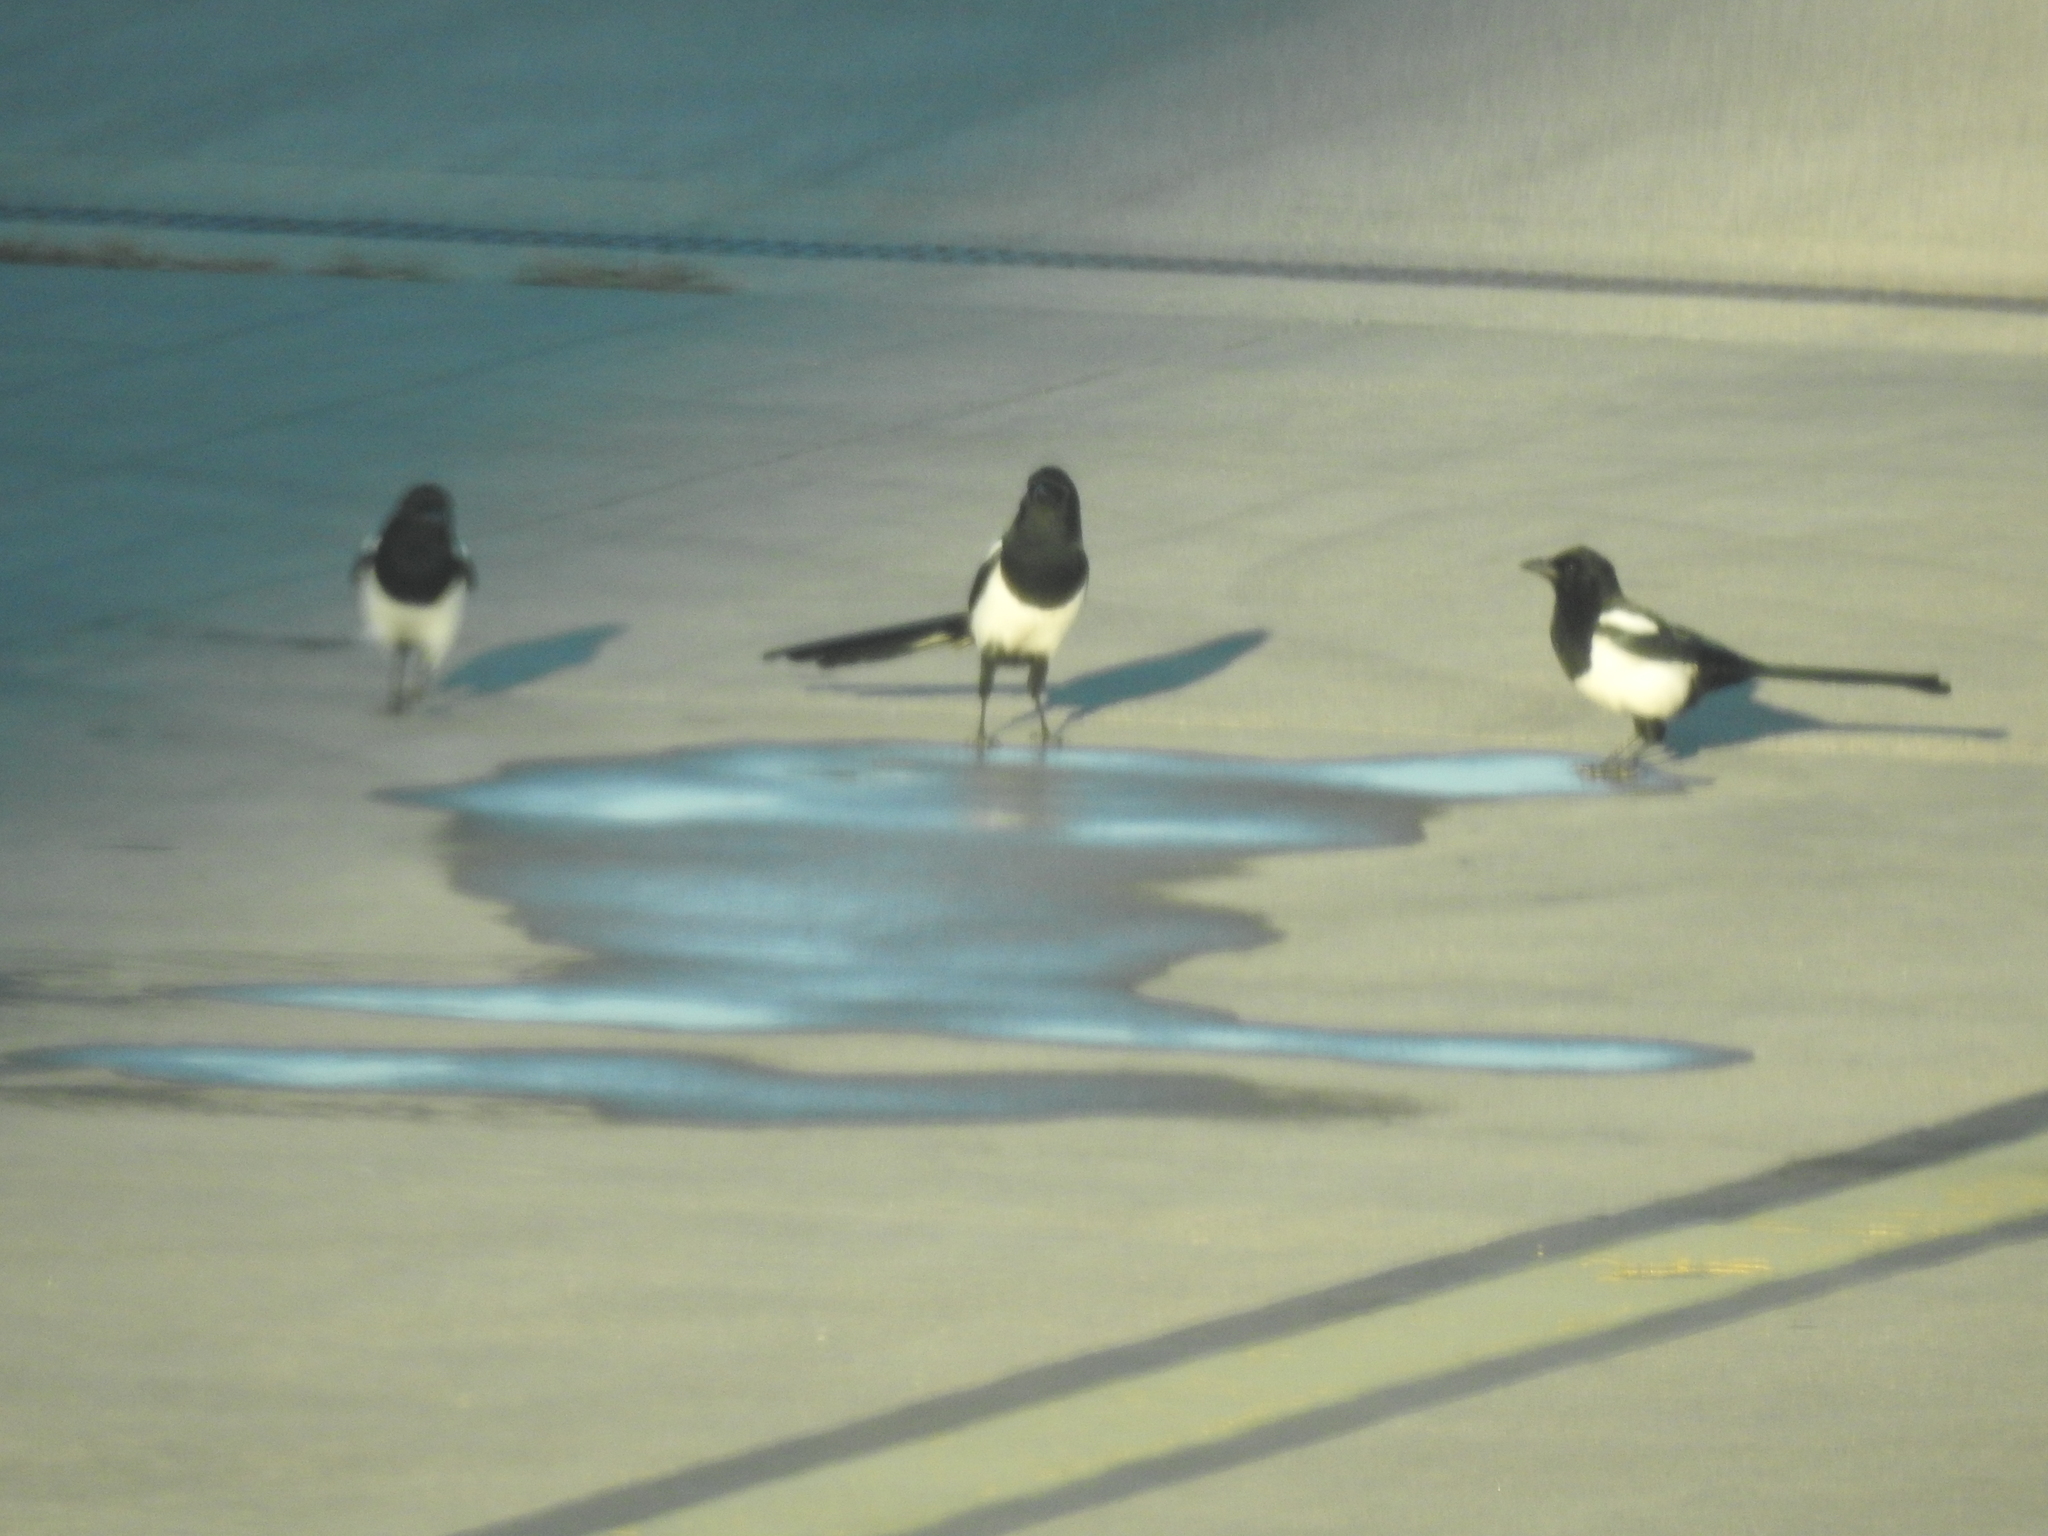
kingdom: Animalia
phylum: Chordata
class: Aves
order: Passeriformes
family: Corvidae
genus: Pica
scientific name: Pica pica
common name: Eurasian magpie
